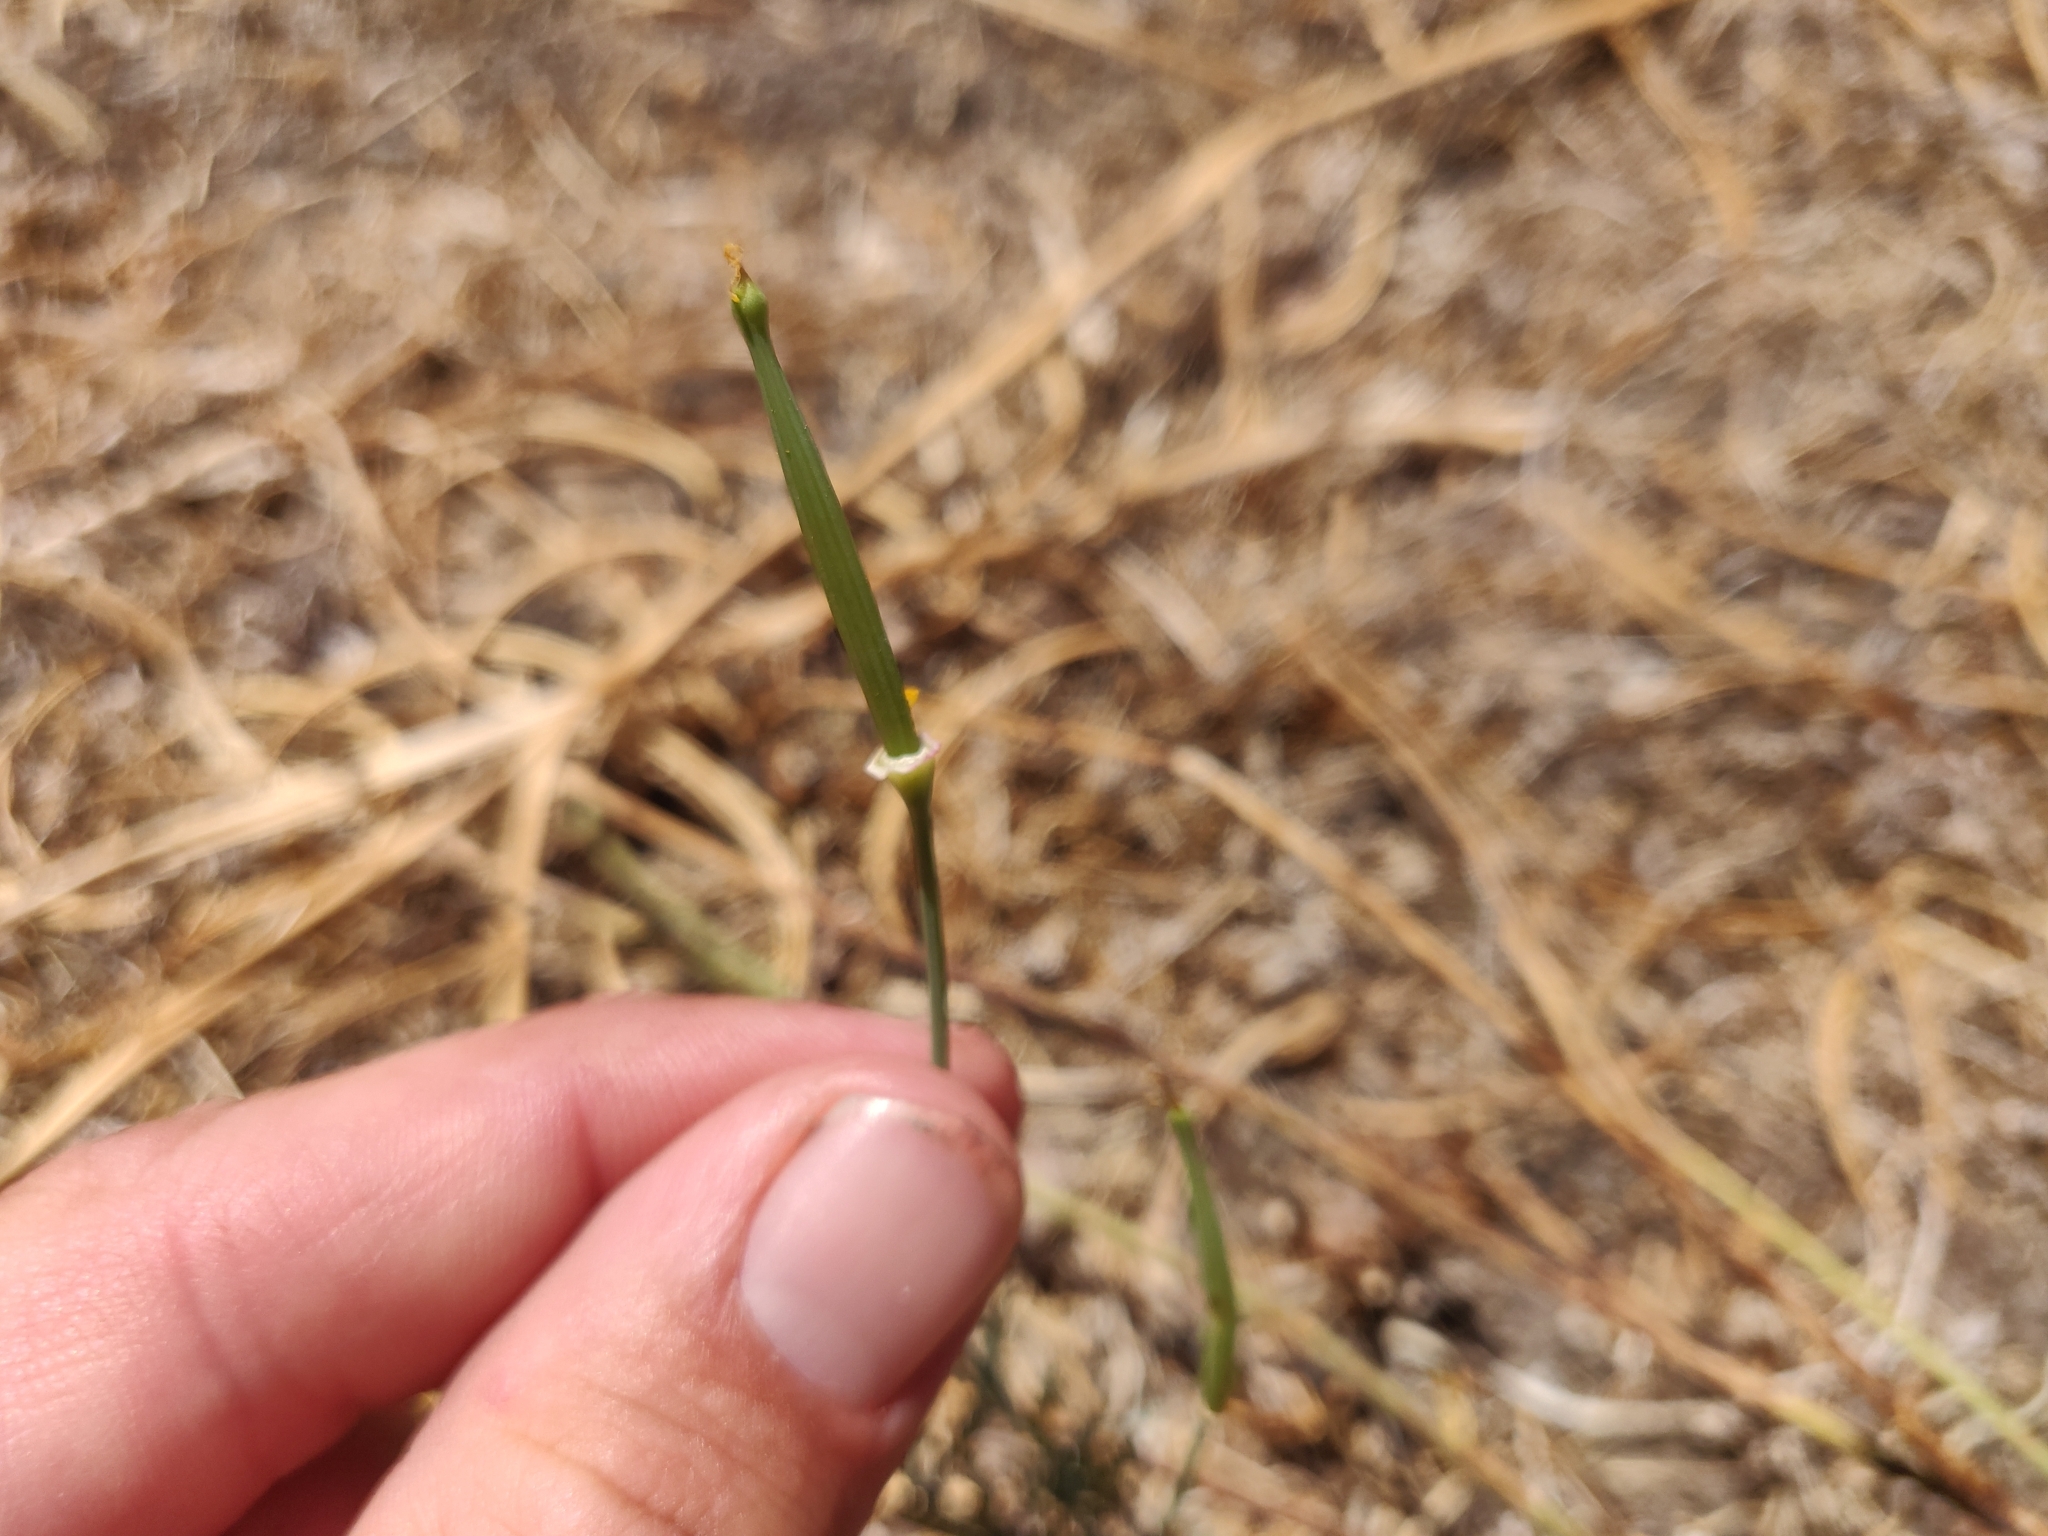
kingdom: Plantae
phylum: Tracheophyta
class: Magnoliopsida
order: Ranunculales
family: Papaveraceae
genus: Eschscholzia
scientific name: Eschscholzia californica
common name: California poppy
